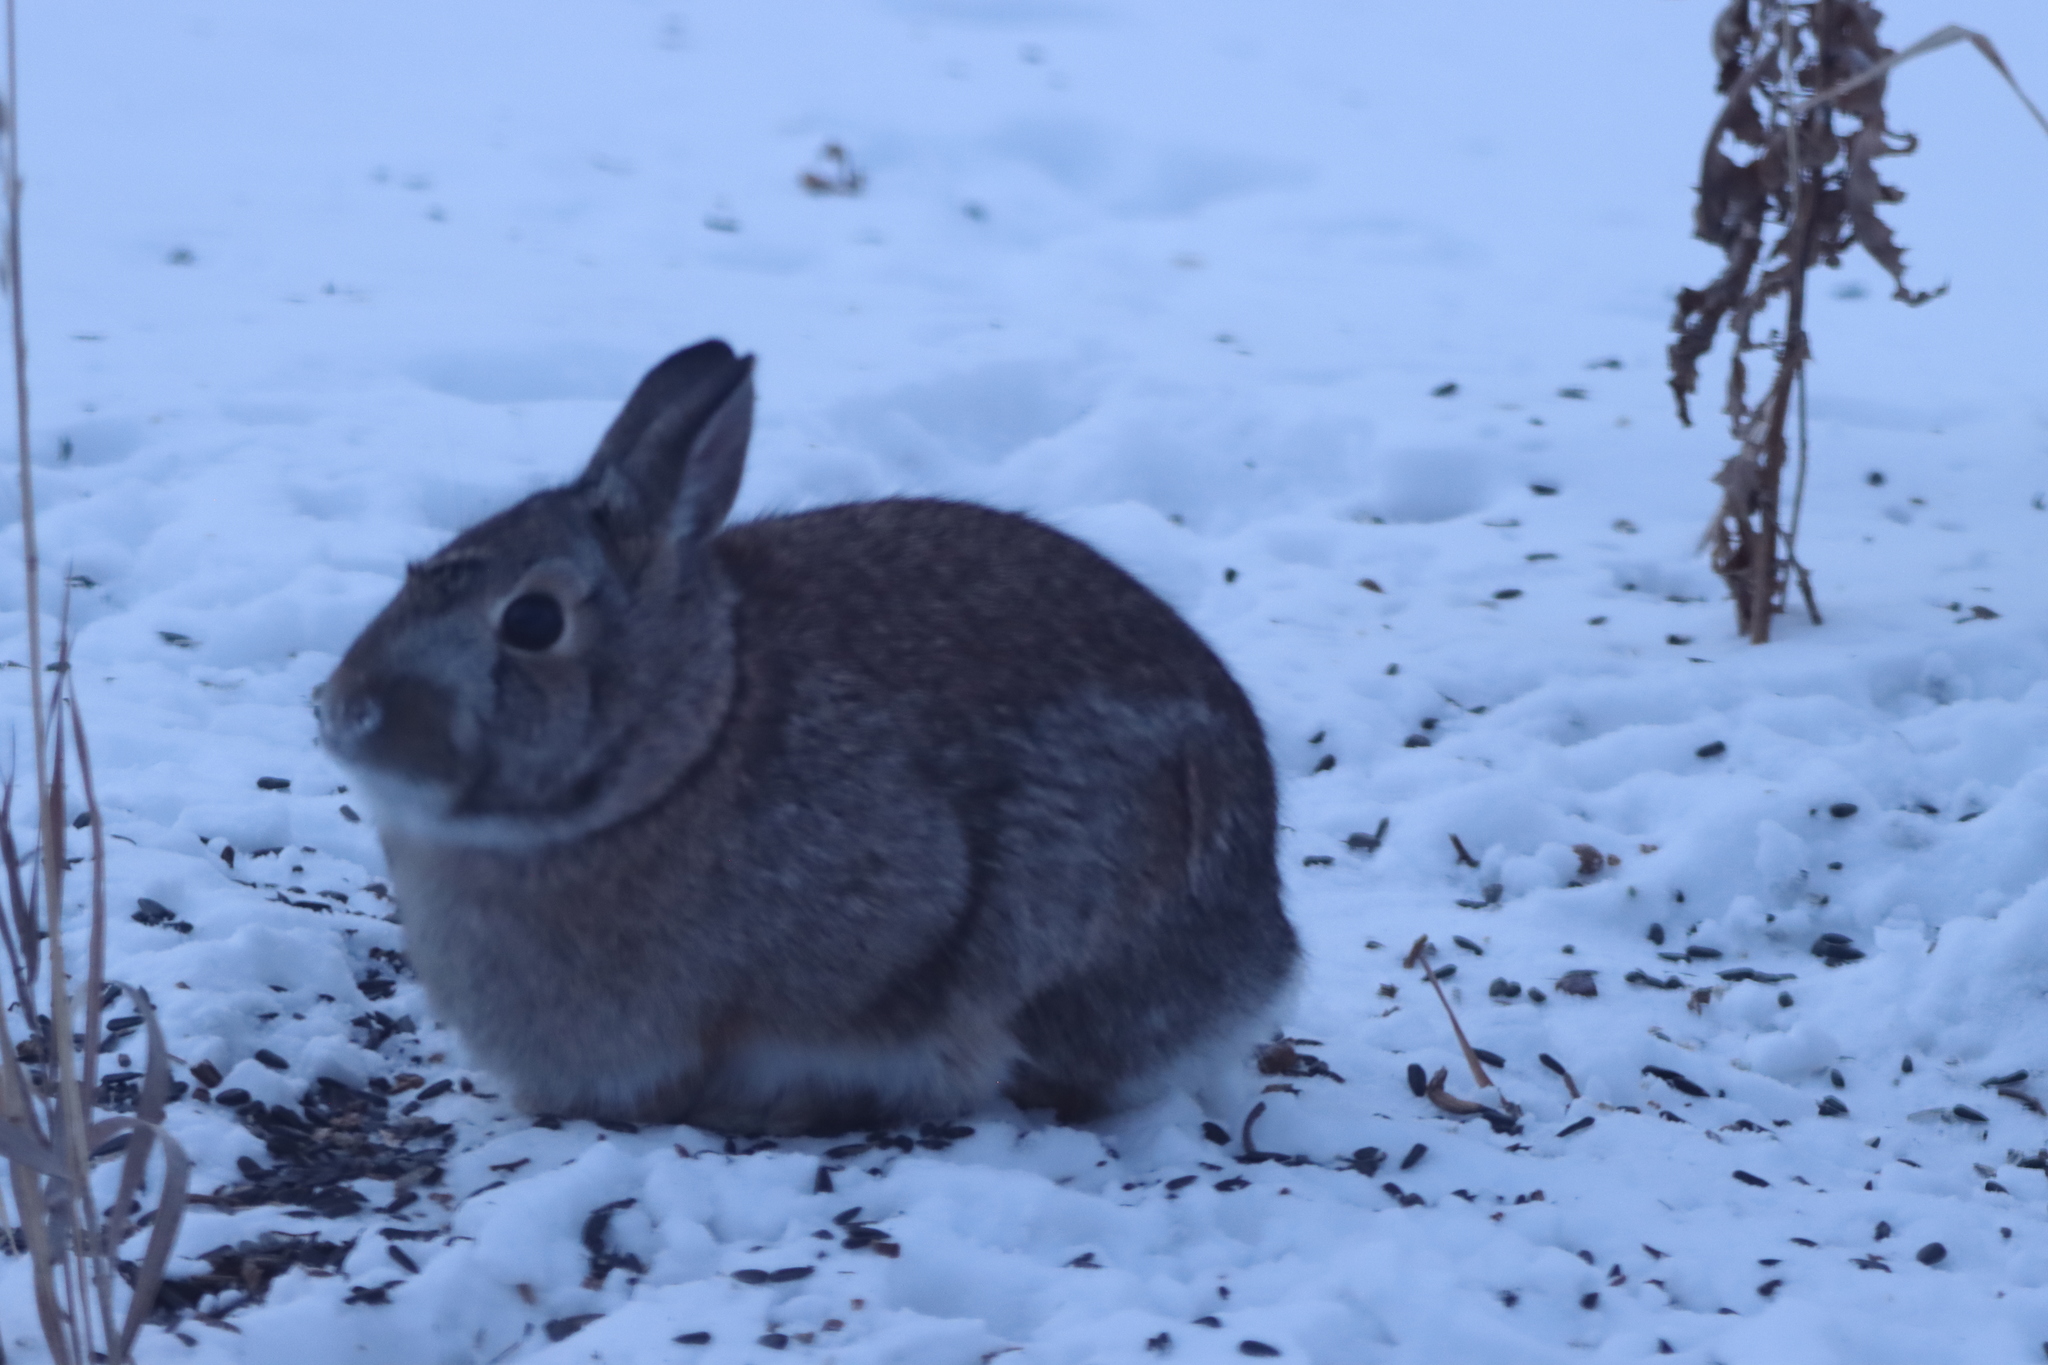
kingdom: Animalia
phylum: Chordata
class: Mammalia
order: Lagomorpha
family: Leporidae
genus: Sylvilagus
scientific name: Sylvilagus floridanus
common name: Eastern cottontail
